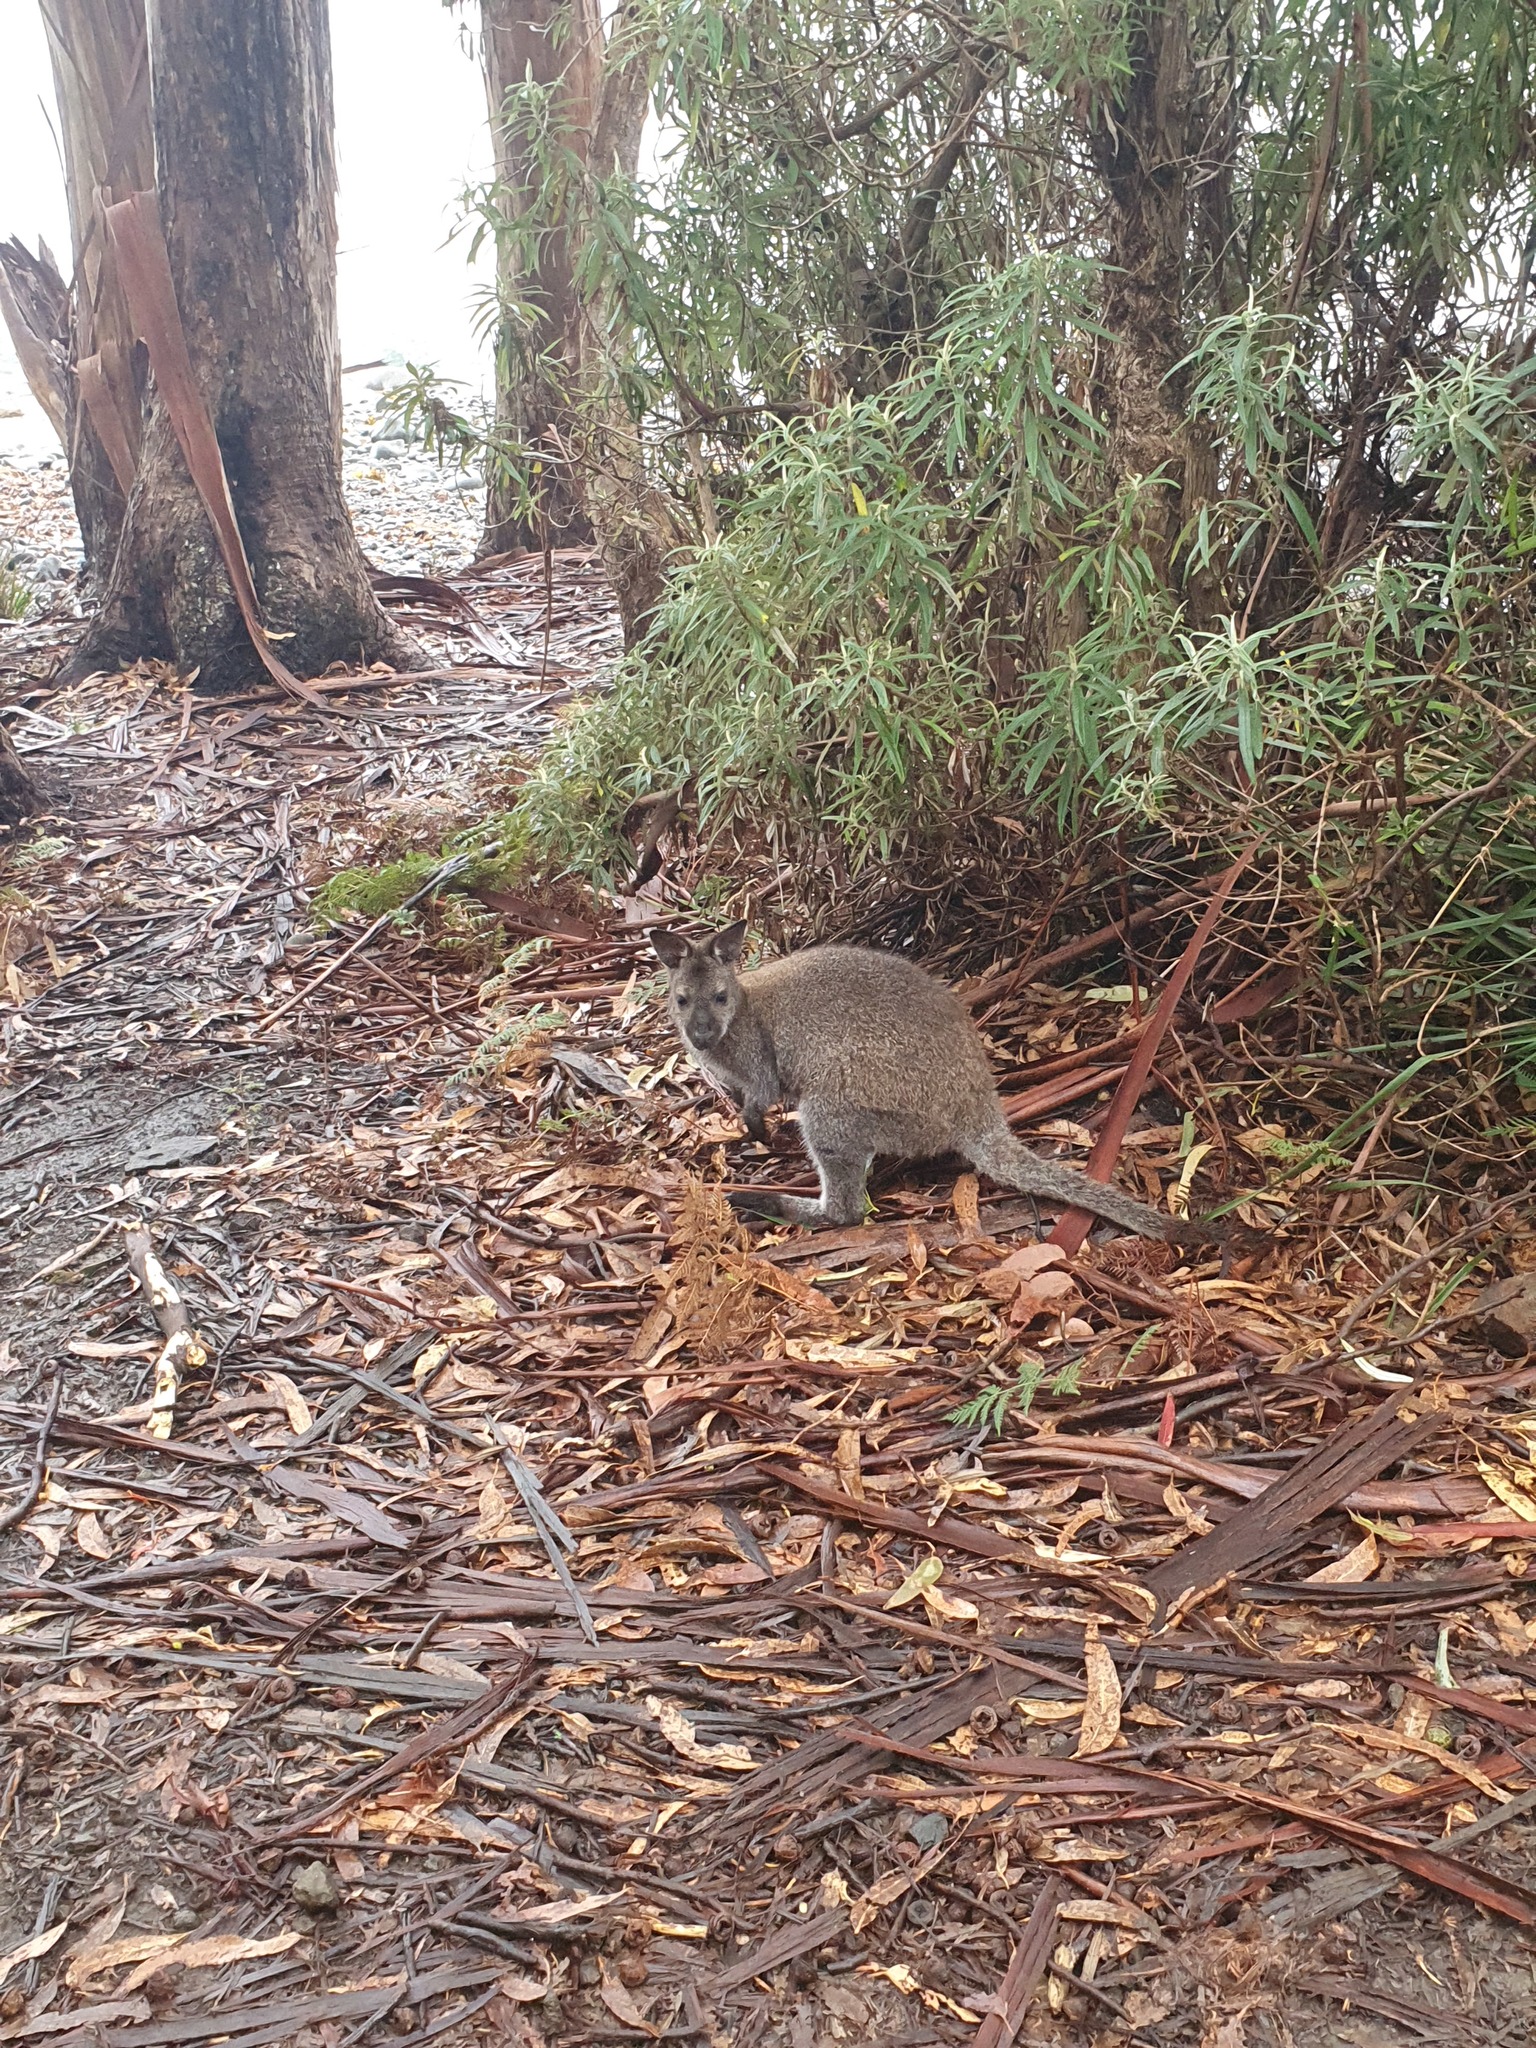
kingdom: Animalia
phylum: Chordata
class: Mammalia
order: Diprotodontia
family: Macropodidae
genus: Notamacropus
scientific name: Notamacropus rufogriseus
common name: Red-necked wallaby
